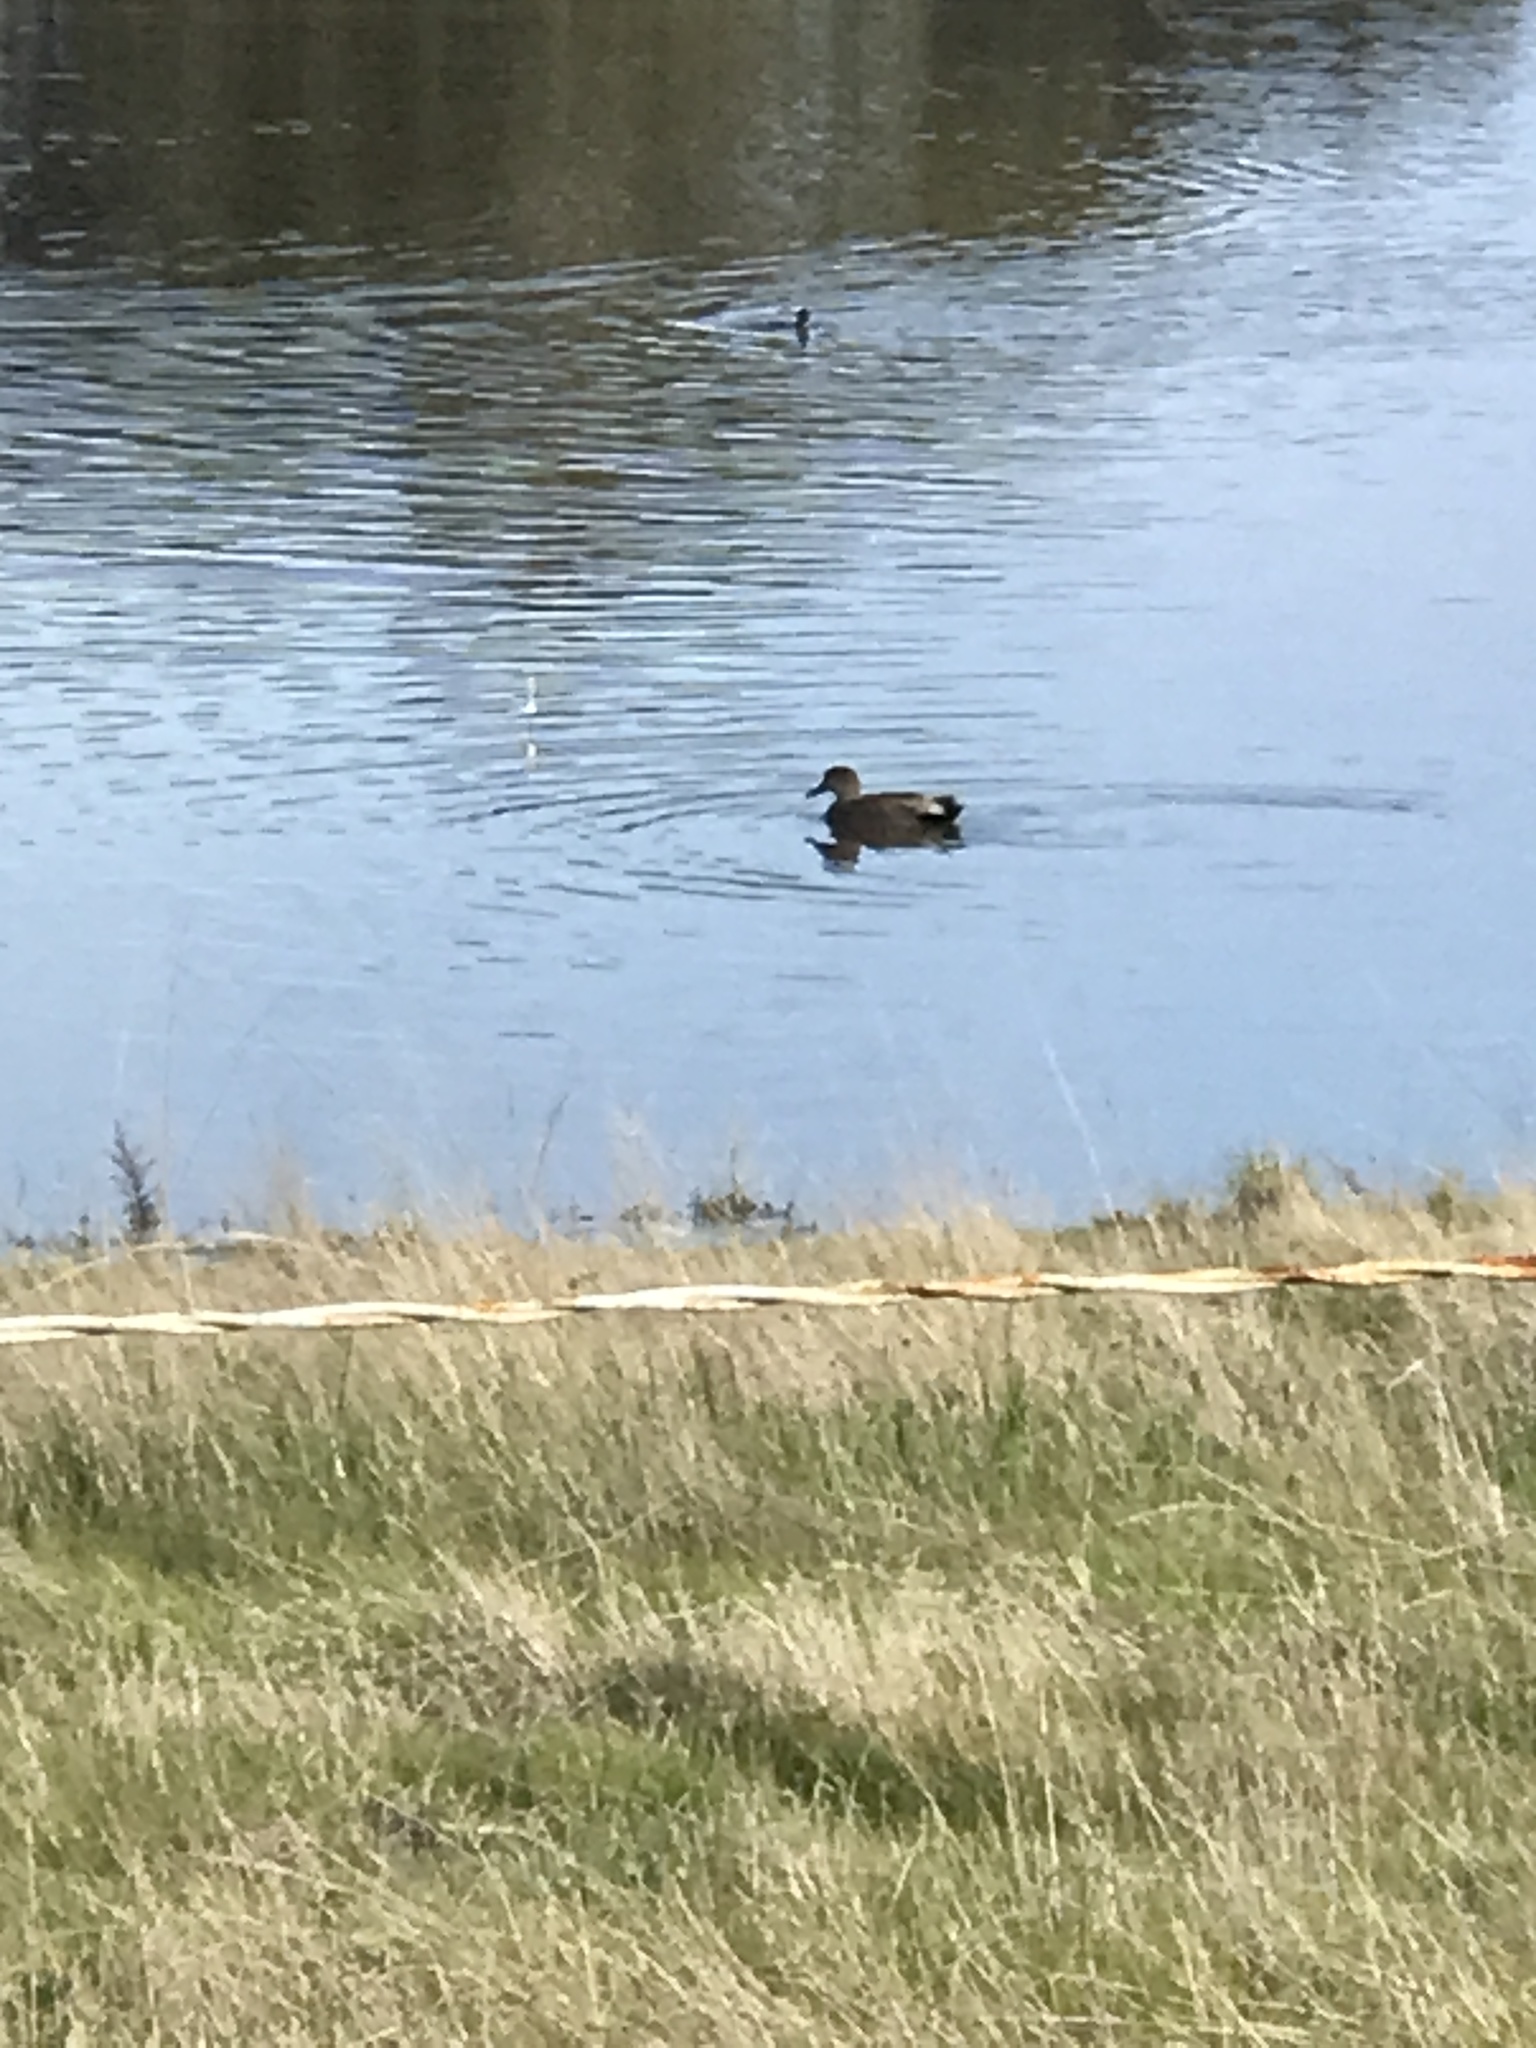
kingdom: Animalia
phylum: Chordata
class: Aves
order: Anseriformes
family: Anatidae
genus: Mareca
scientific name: Mareca strepera
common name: Gadwall
